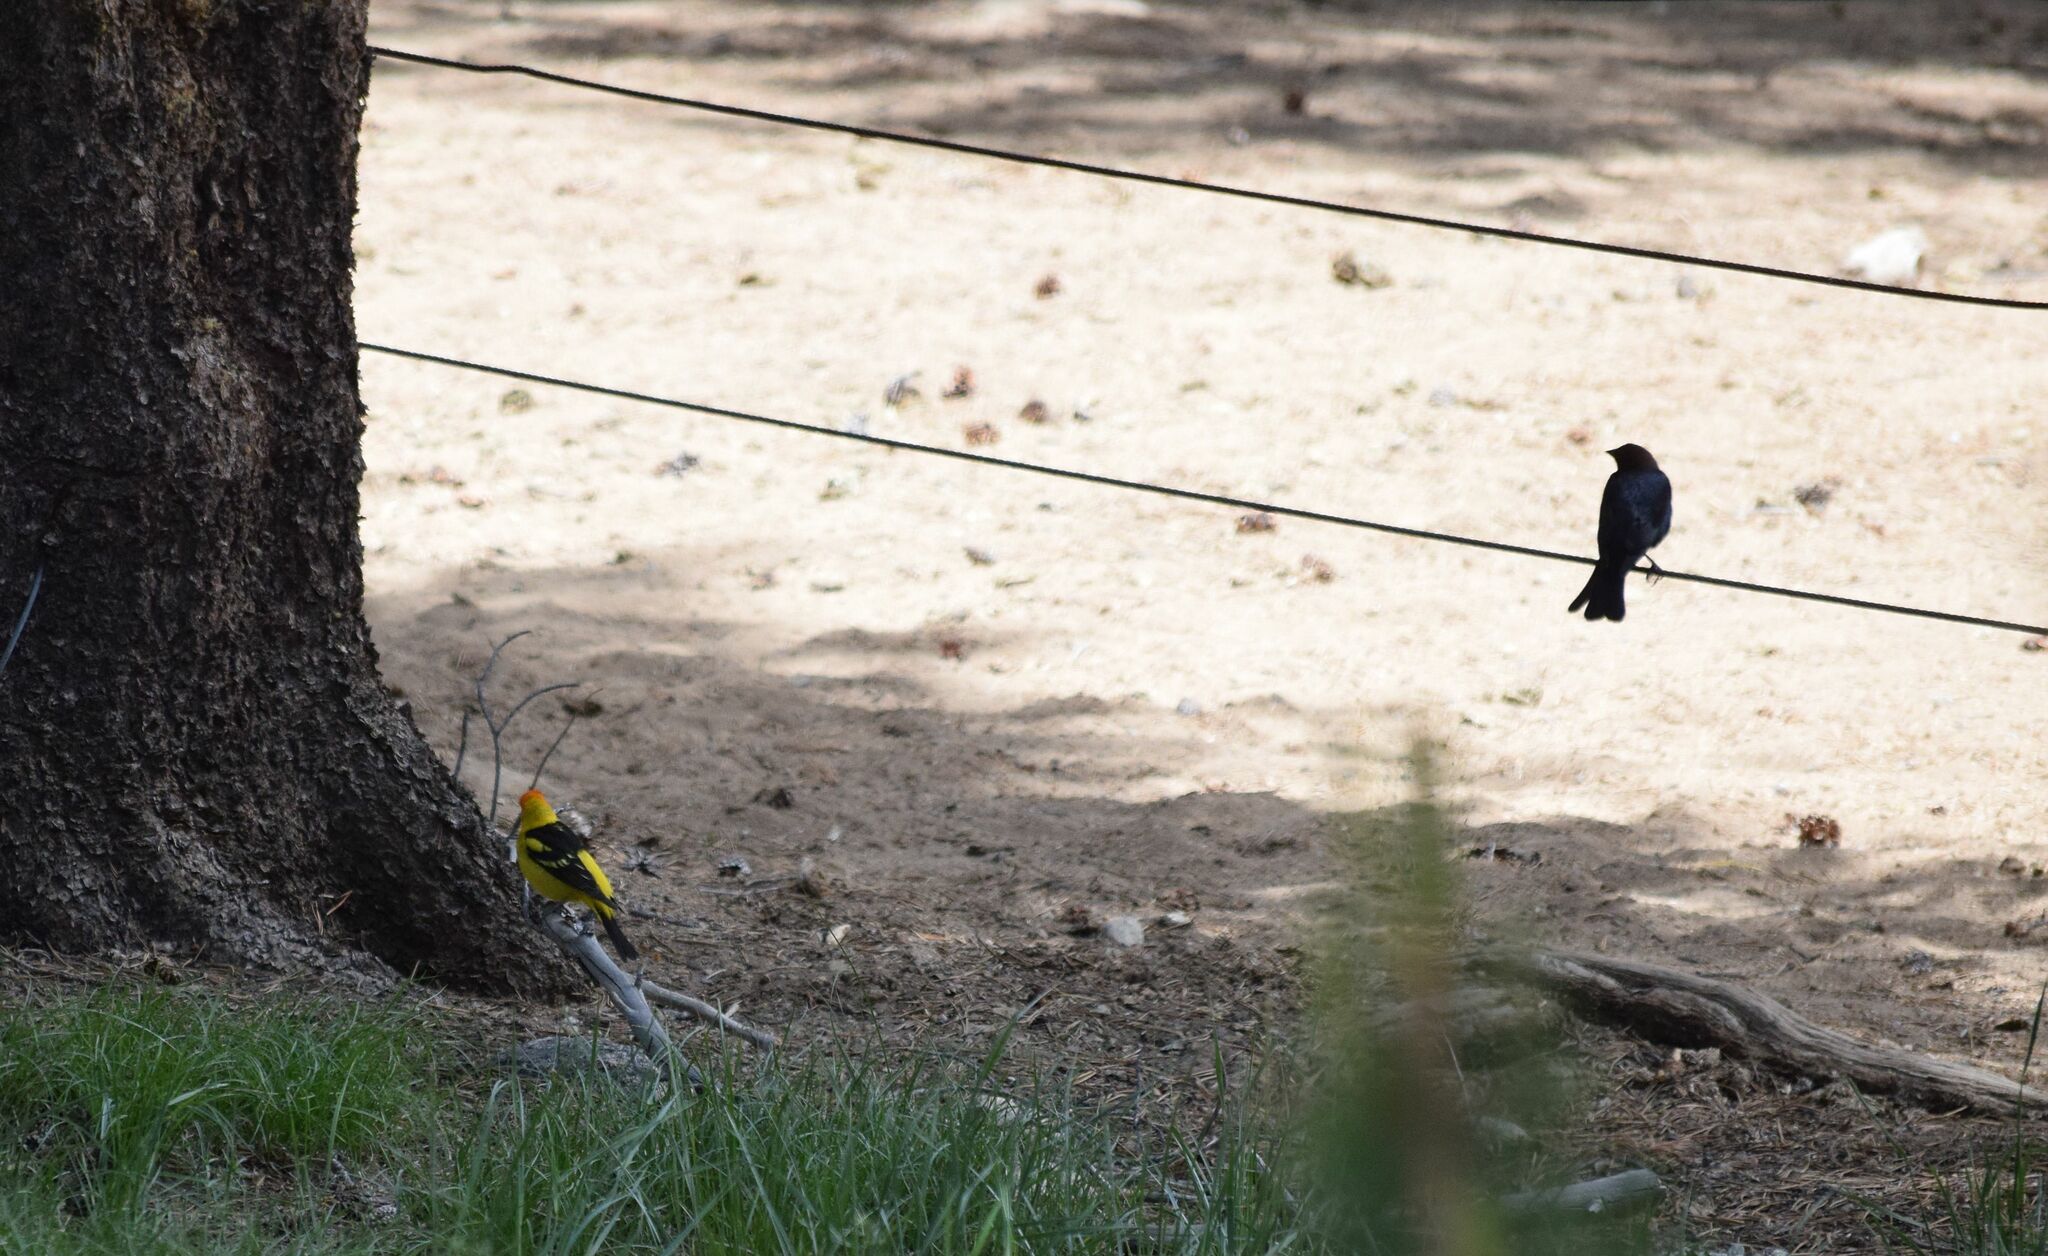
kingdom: Animalia
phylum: Chordata
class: Aves
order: Passeriformes
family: Cardinalidae
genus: Piranga
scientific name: Piranga ludoviciana
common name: Western tanager
